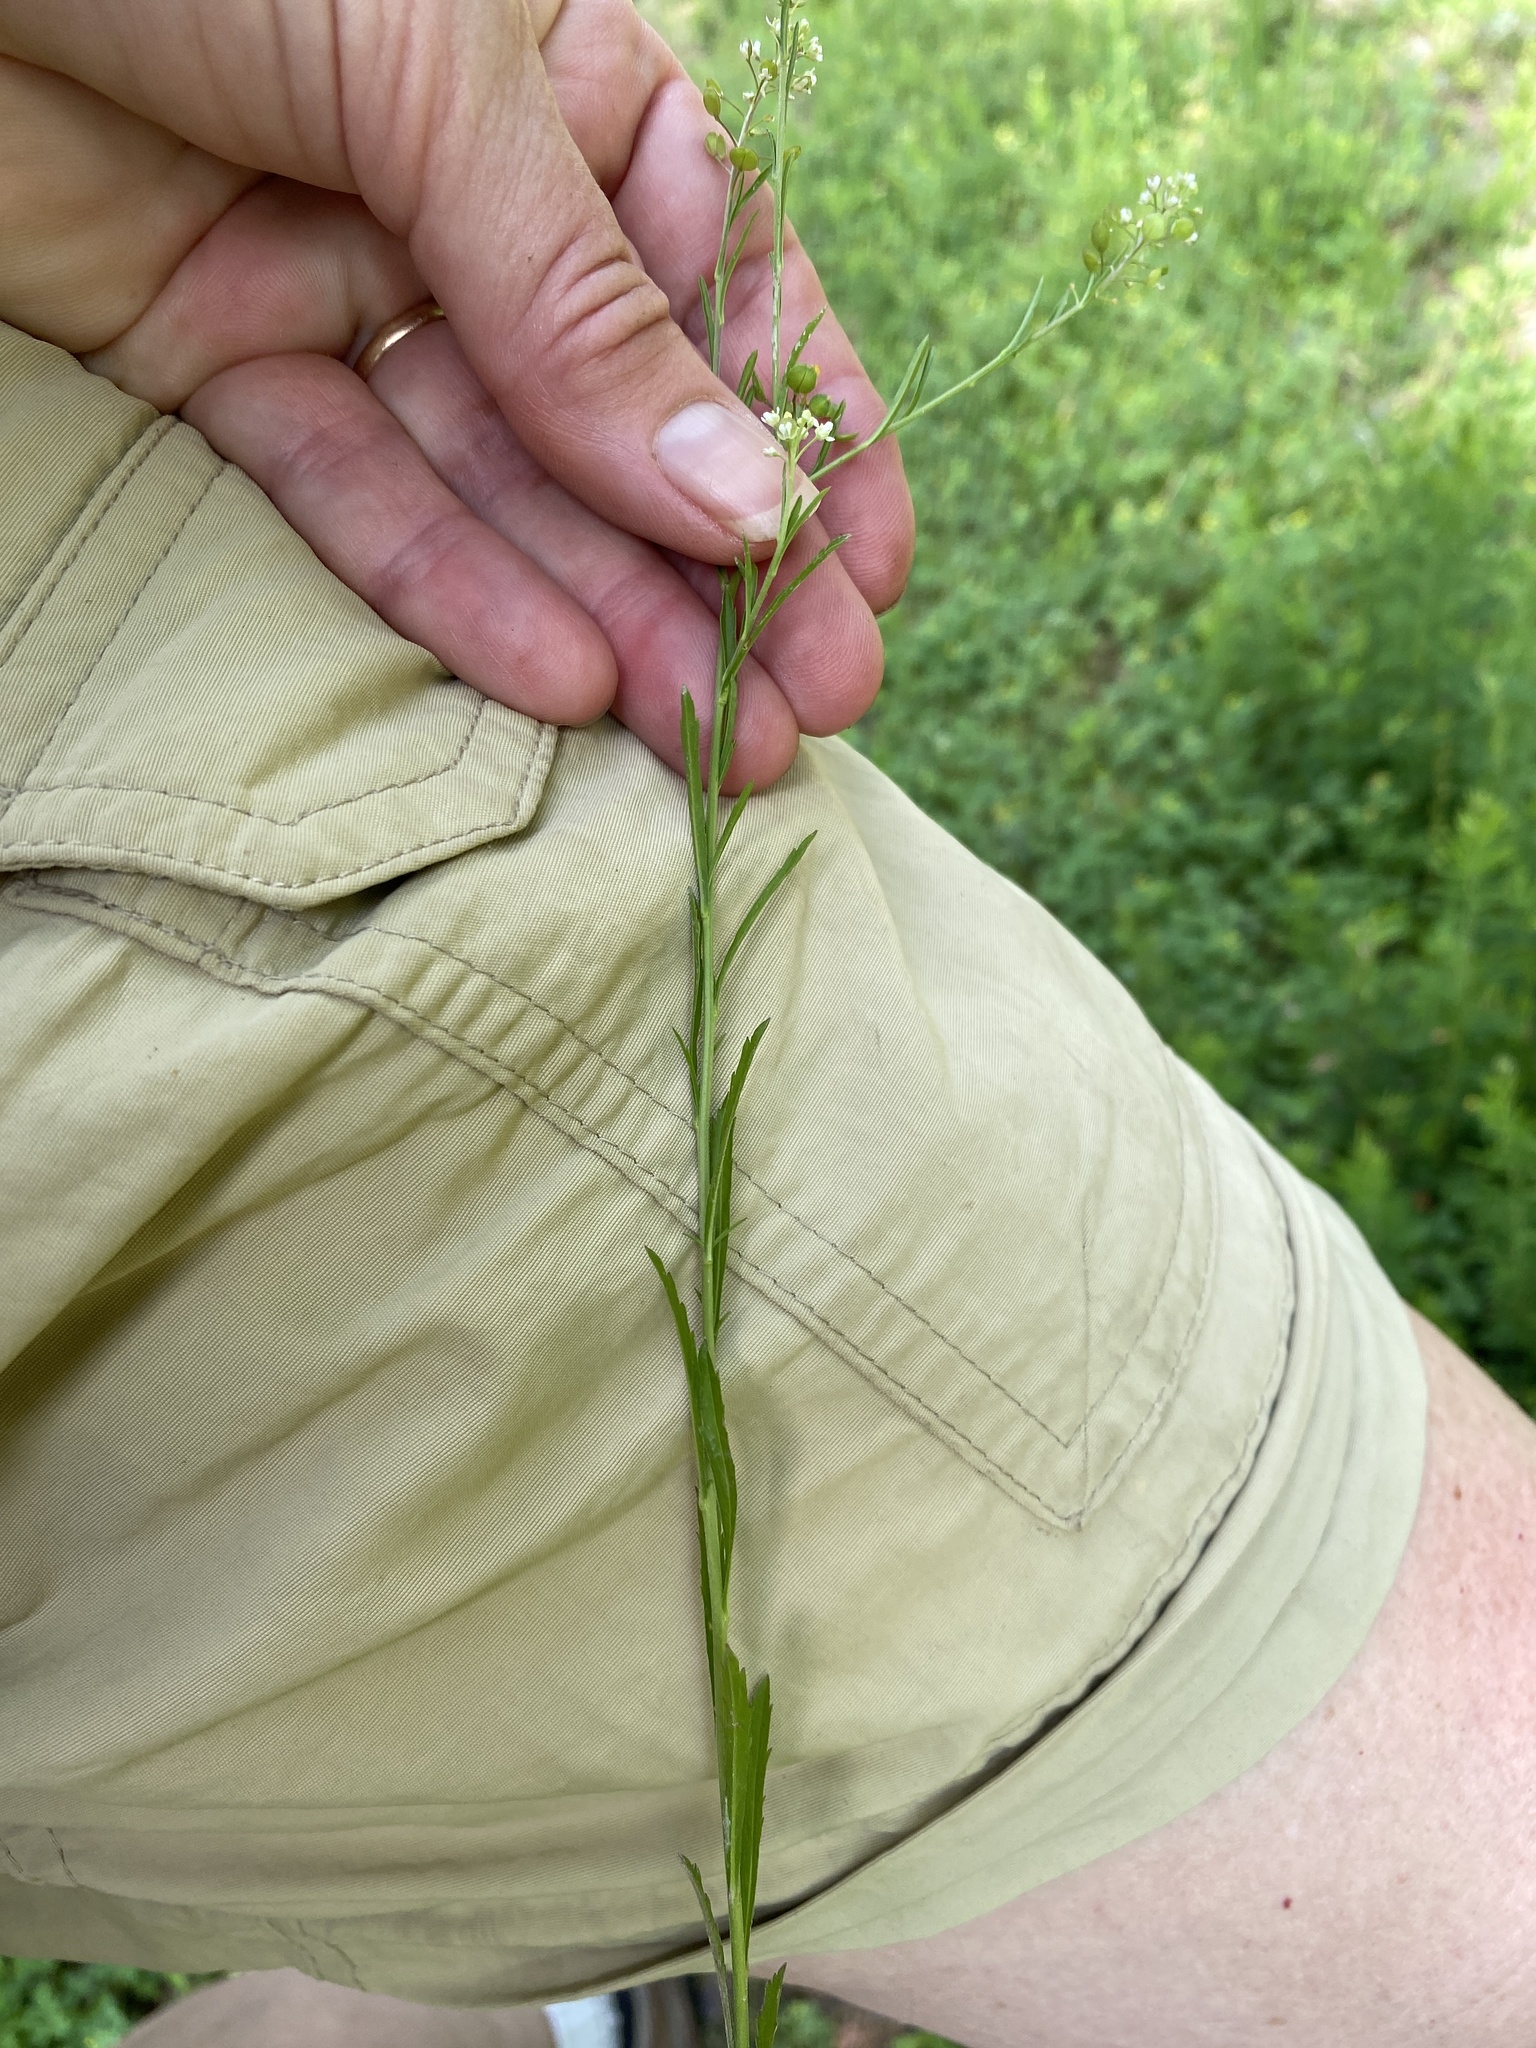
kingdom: Plantae
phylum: Tracheophyta
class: Magnoliopsida
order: Brassicales
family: Brassicaceae
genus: Lepidium
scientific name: Lepidium virginicum
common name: Least pepperwort
